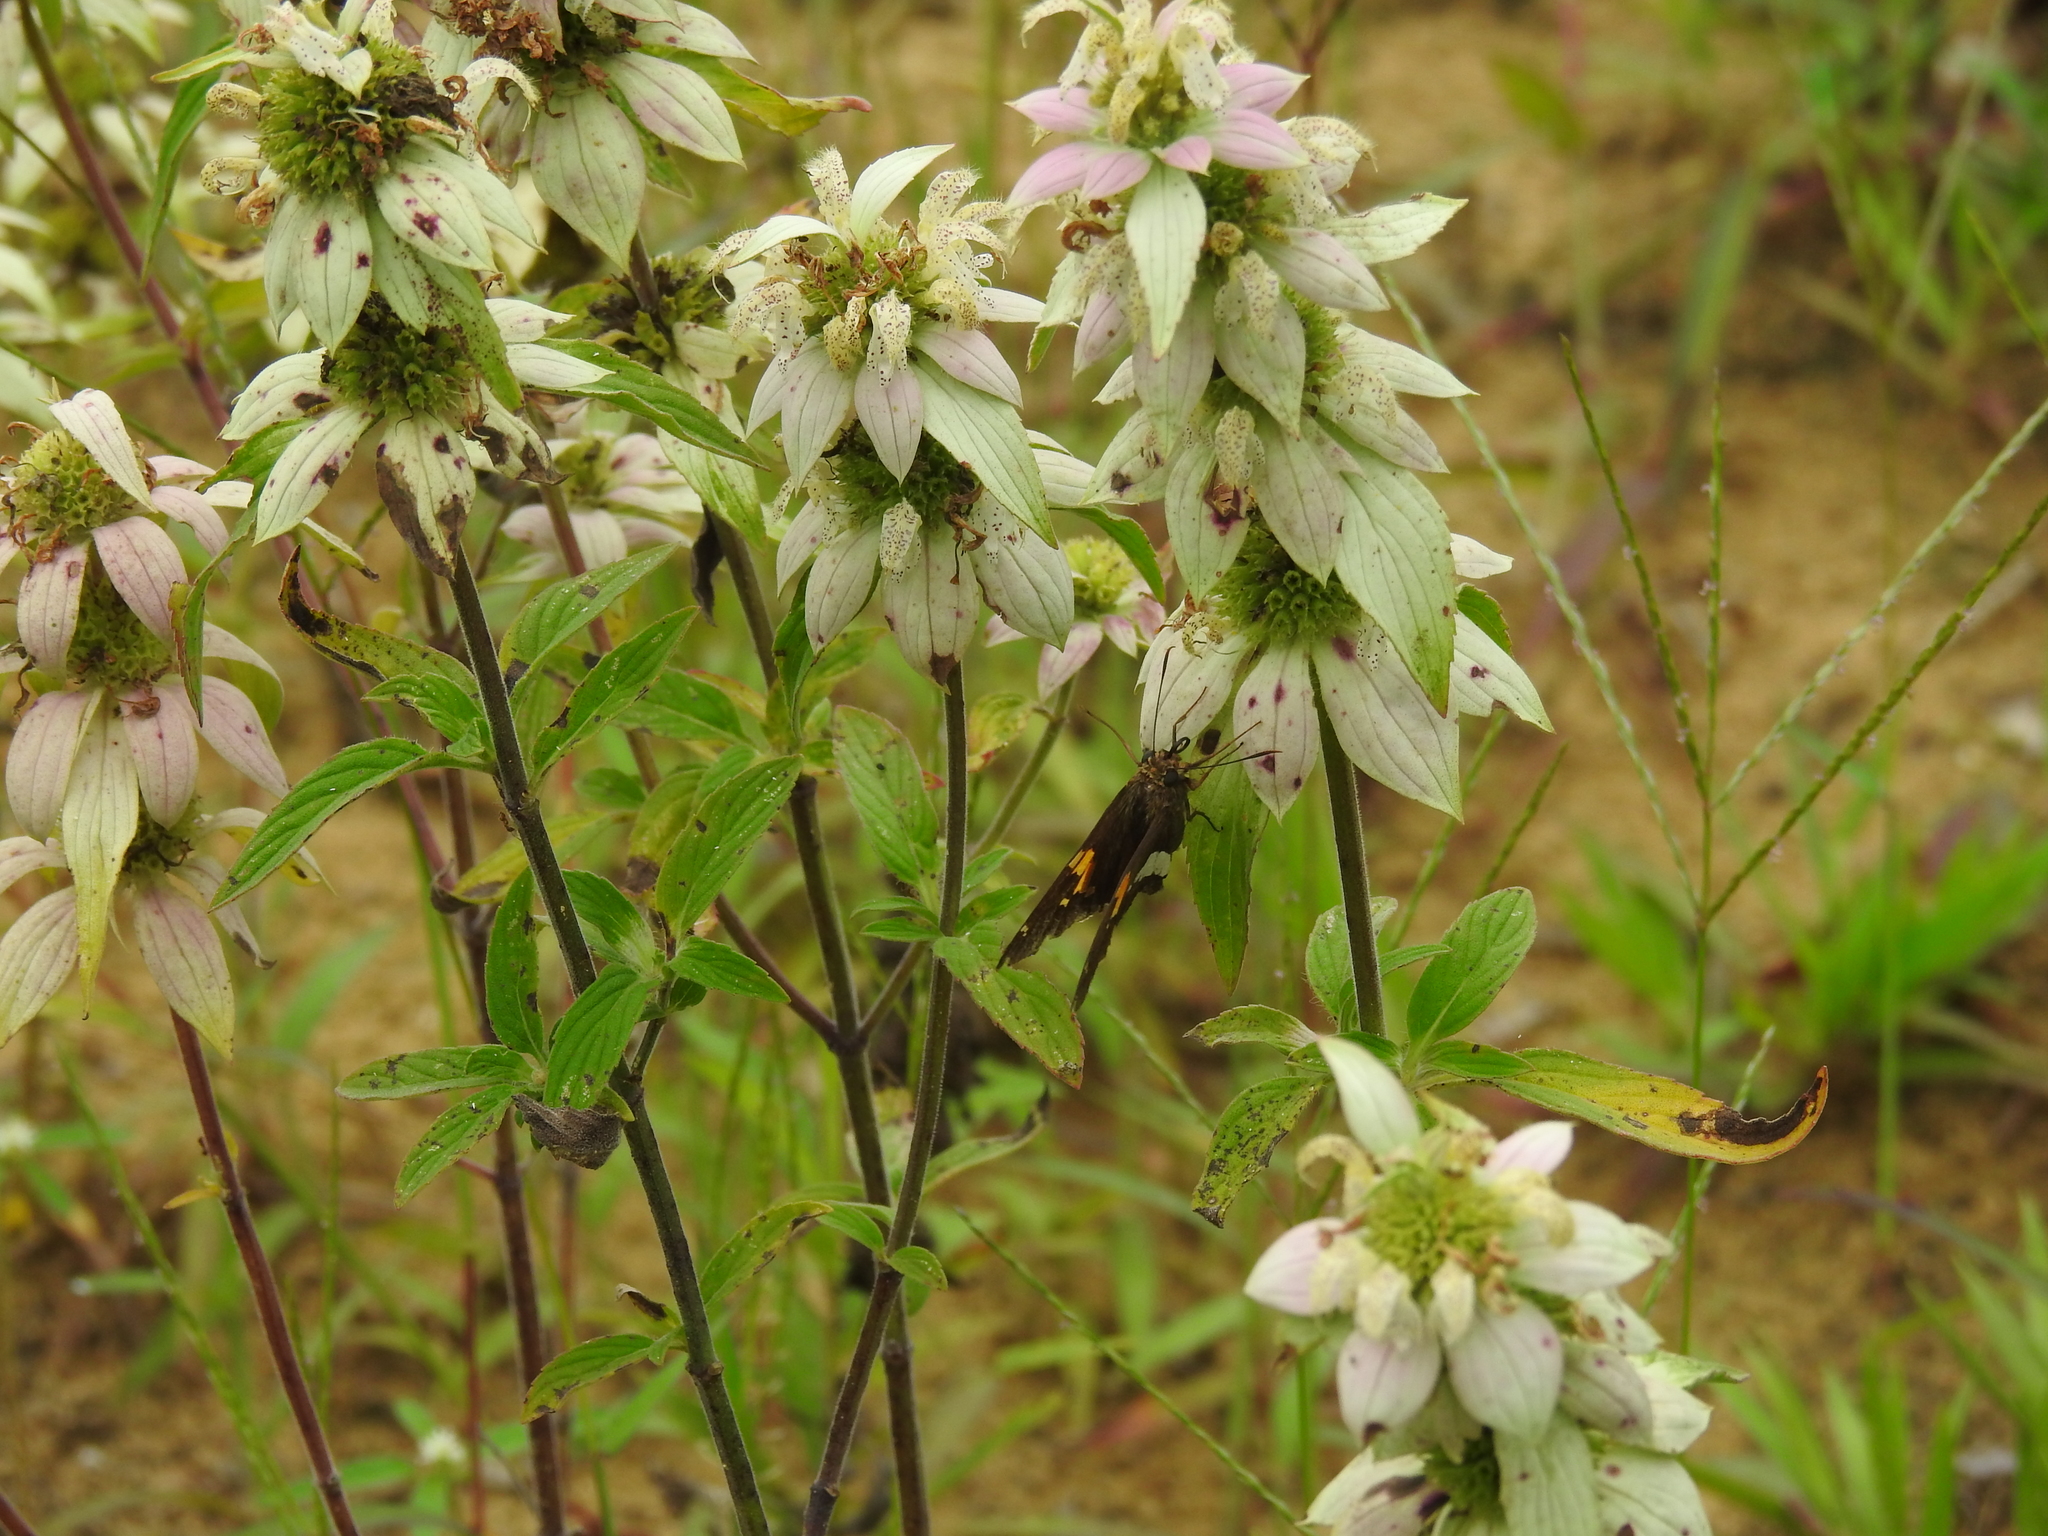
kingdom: Animalia
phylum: Arthropoda
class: Insecta
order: Lepidoptera
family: Hesperiidae
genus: Epargyreus
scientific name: Epargyreus clarus
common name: Silver-spotted skipper
